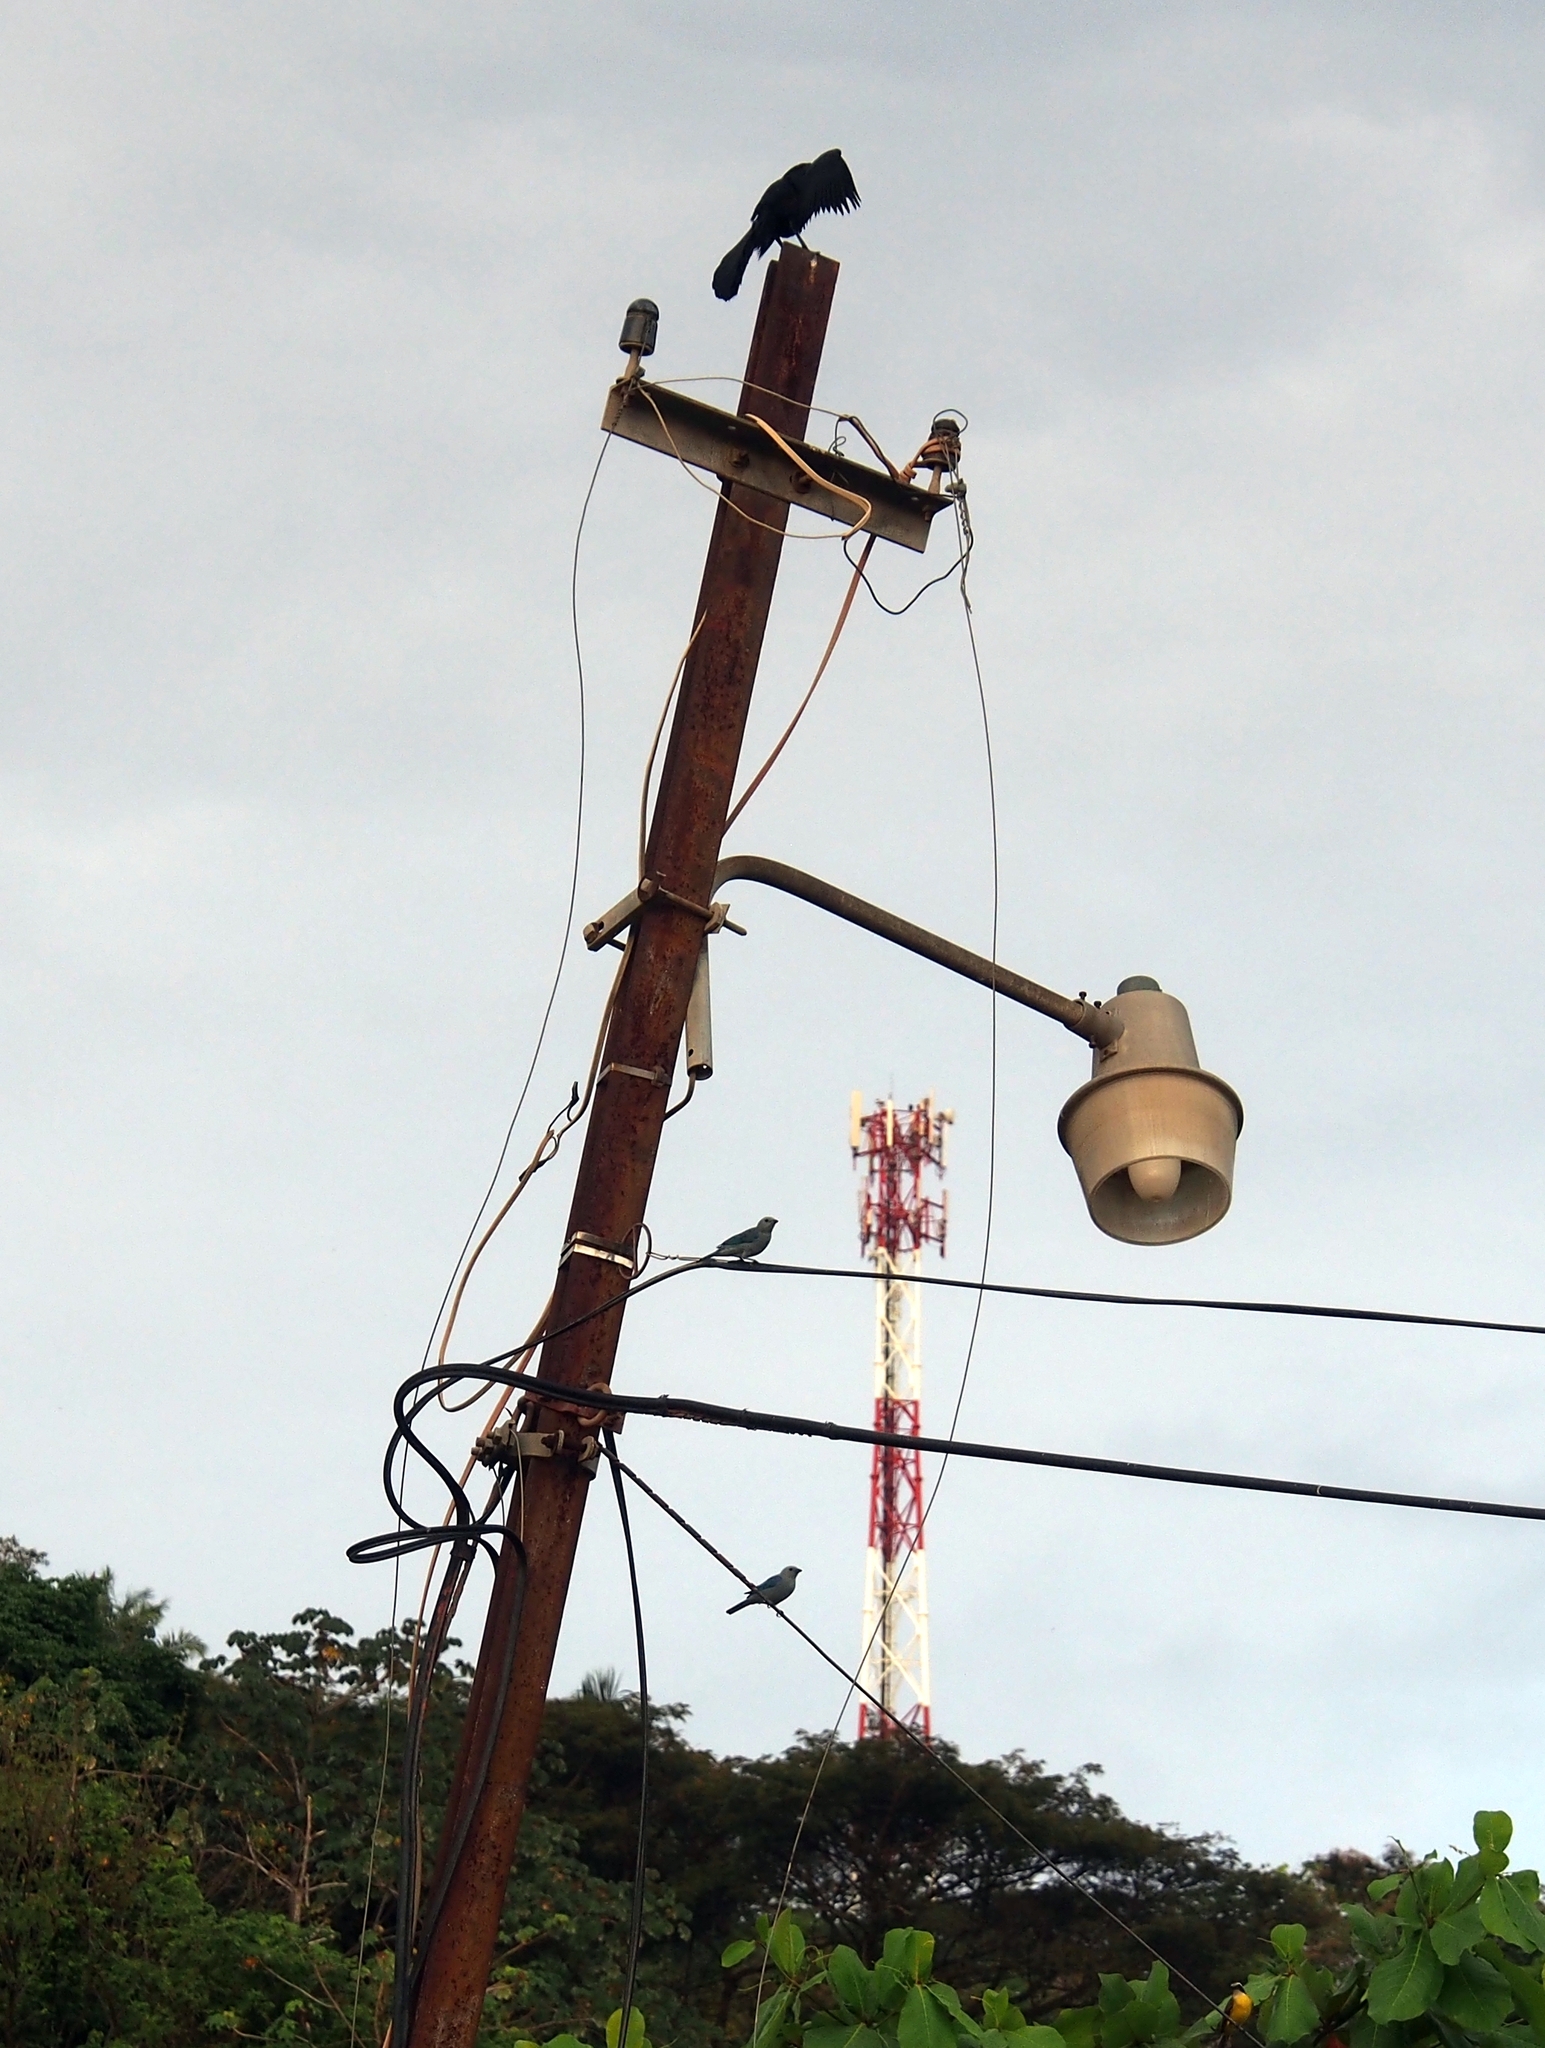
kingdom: Animalia
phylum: Chordata
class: Aves
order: Passeriformes
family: Thraupidae
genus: Thraupis
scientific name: Thraupis episcopus
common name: Blue-grey tanager
